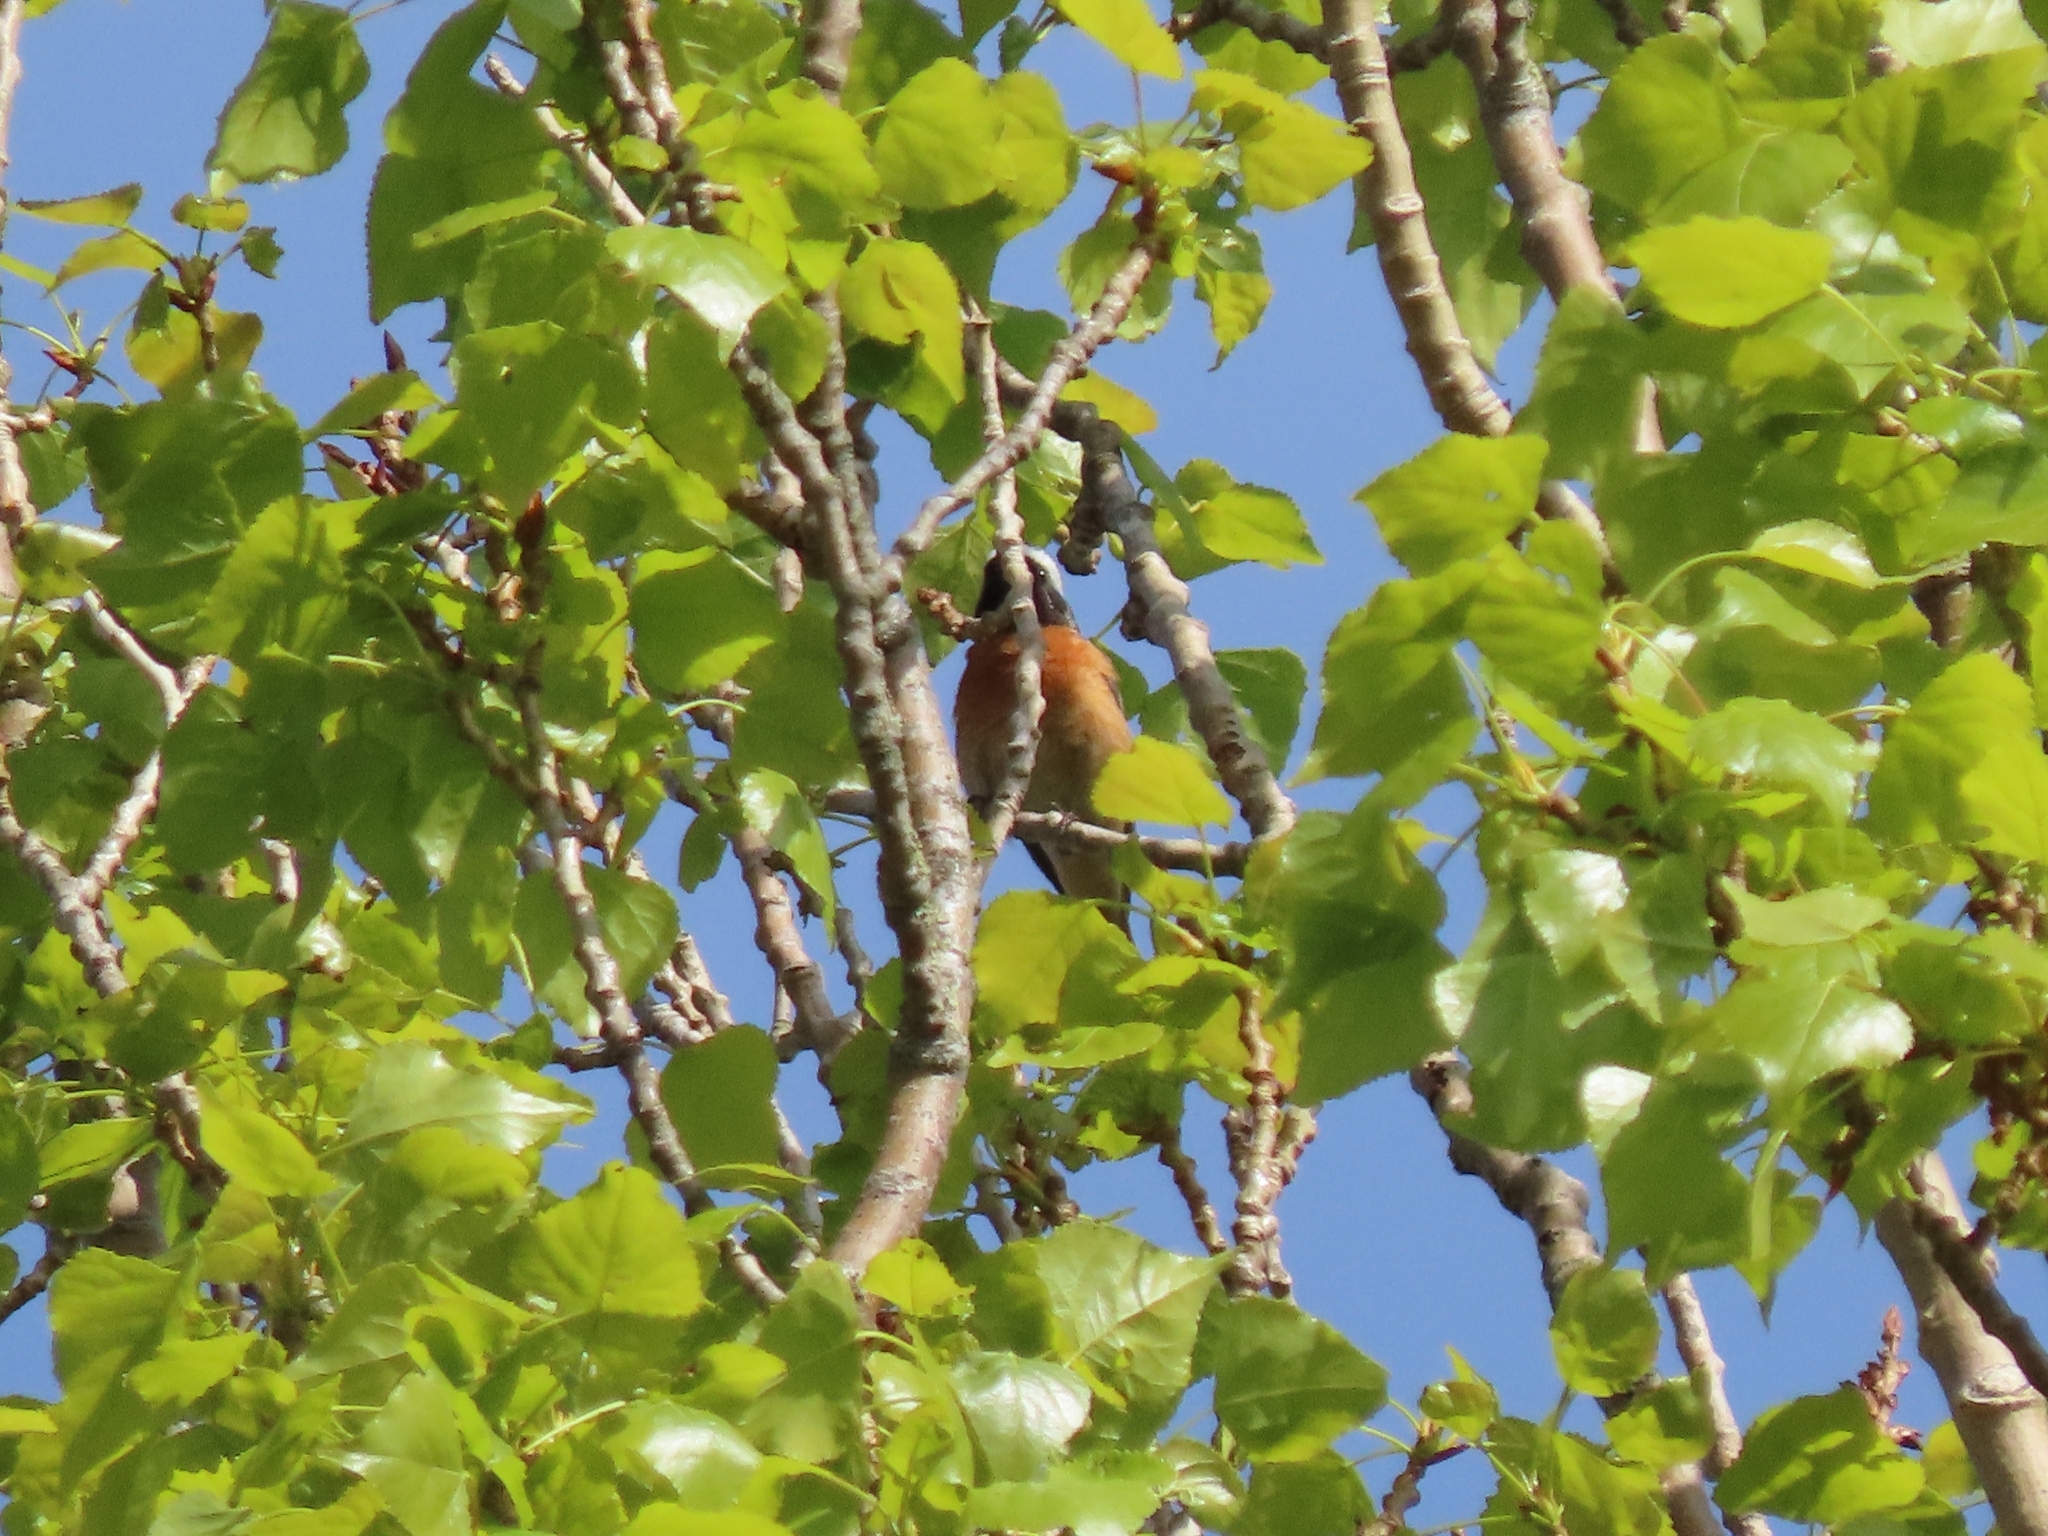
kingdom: Animalia
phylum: Chordata
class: Aves
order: Passeriformes
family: Muscicapidae
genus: Phoenicurus
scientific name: Phoenicurus phoenicurus
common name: Common redstart
